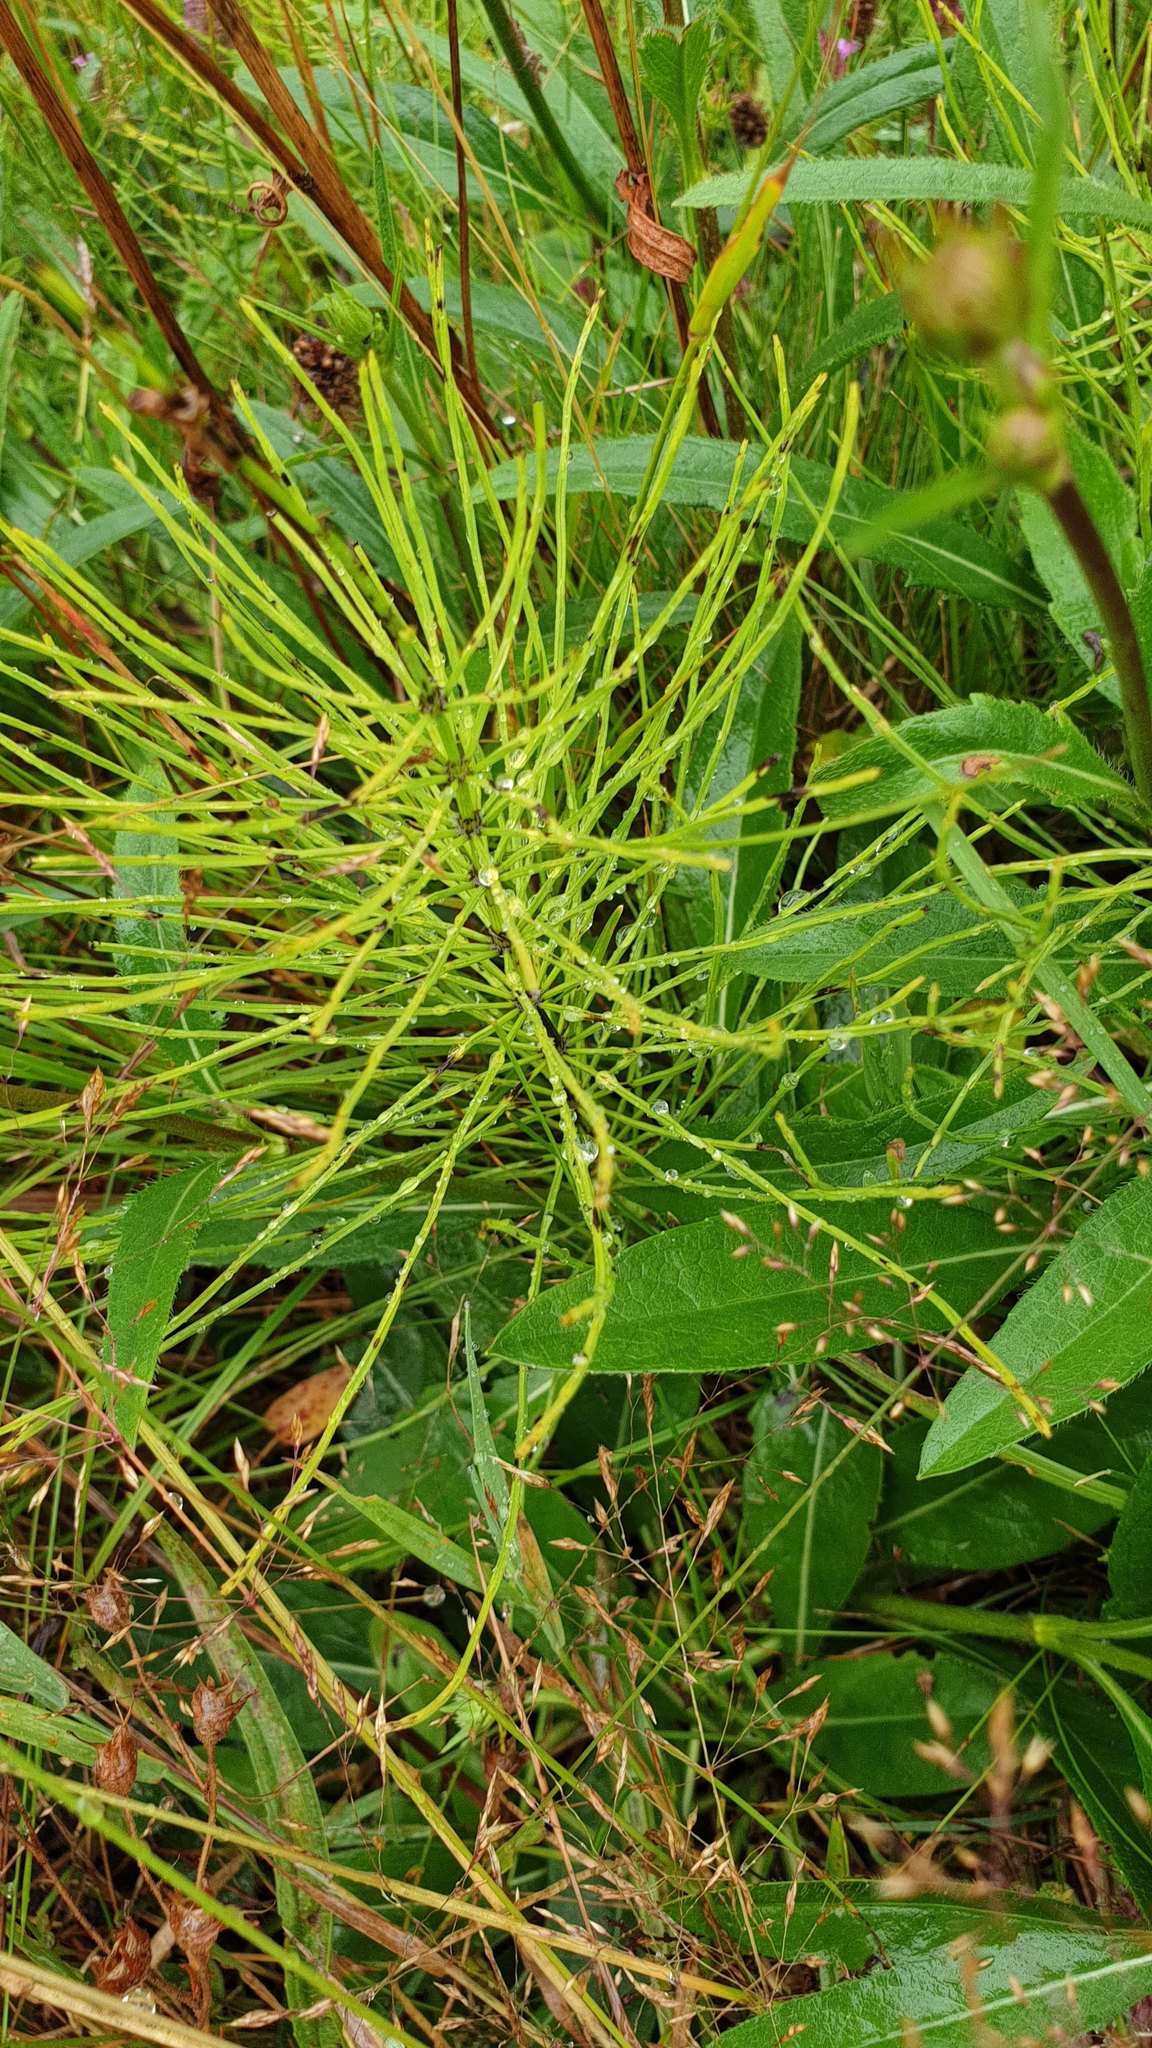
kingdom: Plantae
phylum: Tracheophyta
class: Polypodiopsida
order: Equisetales
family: Equisetaceae
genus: Equisetum
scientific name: Equisetum arvense
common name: Field horsetail
